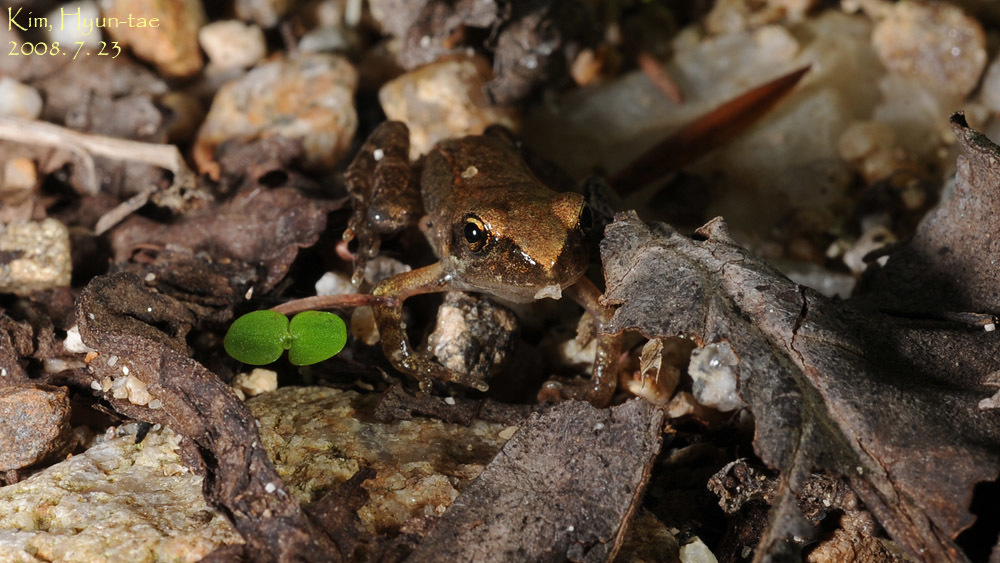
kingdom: Animalia
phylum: Chordata
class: Amphibia
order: Anura
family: Ranidae
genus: Rana
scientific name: Rana uenoi
